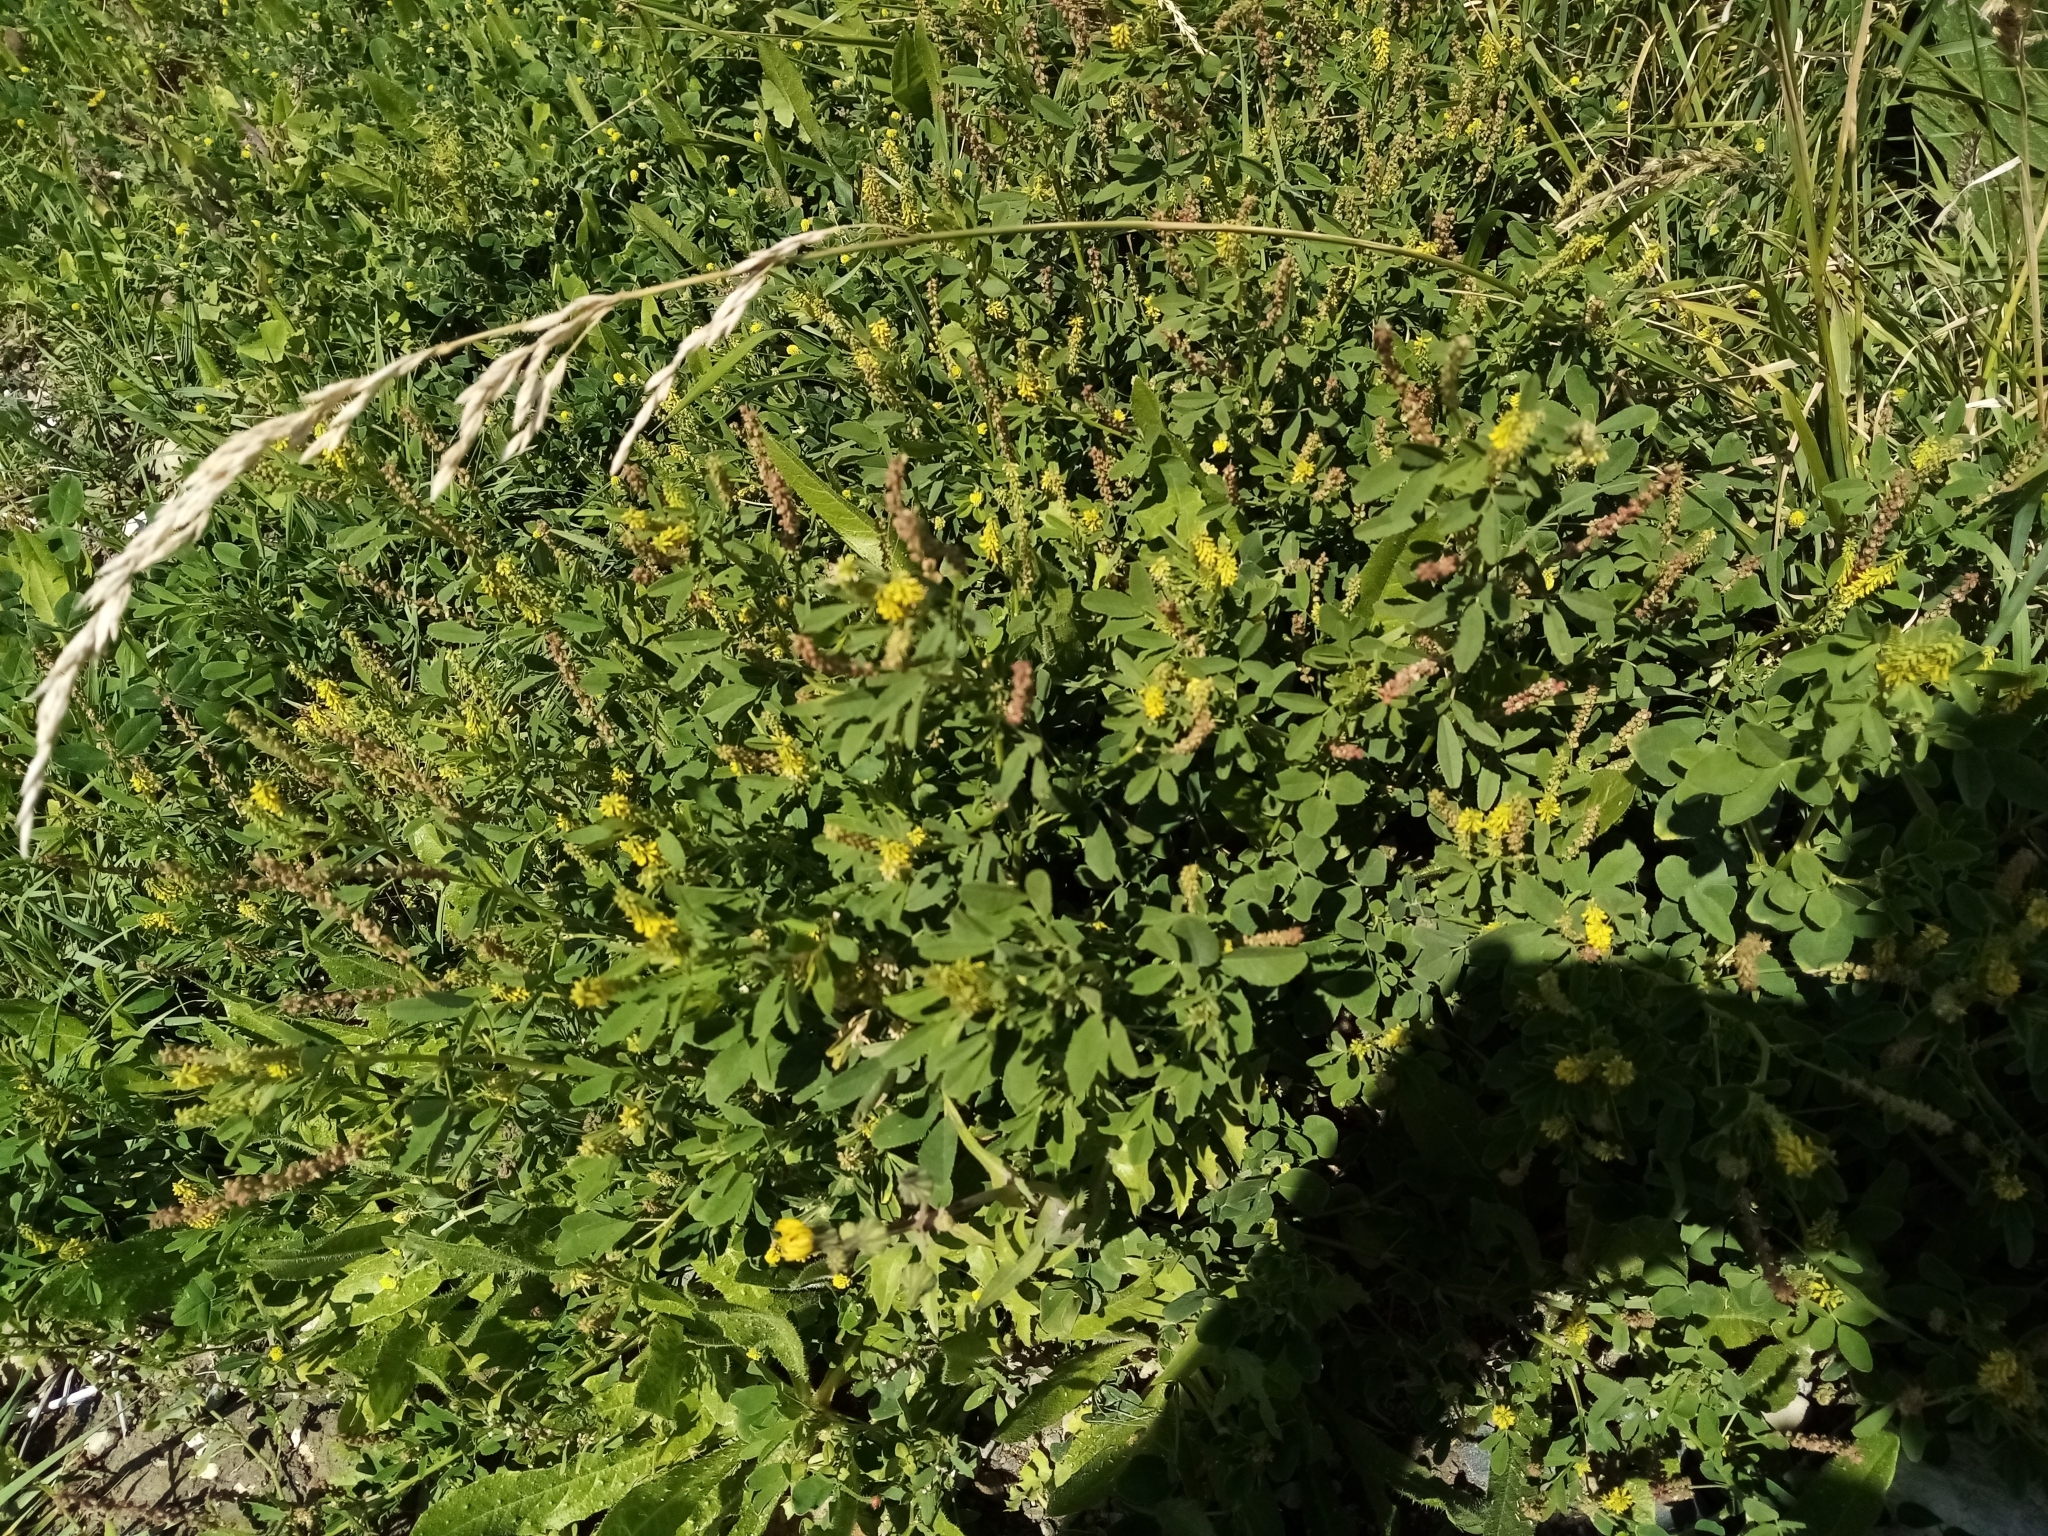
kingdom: Plantae
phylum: Tracheophyta
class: Magnoliopsida
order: Fabales
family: Fabaceae
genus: Melilotus
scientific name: Melilotus indicus
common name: Small melilot
